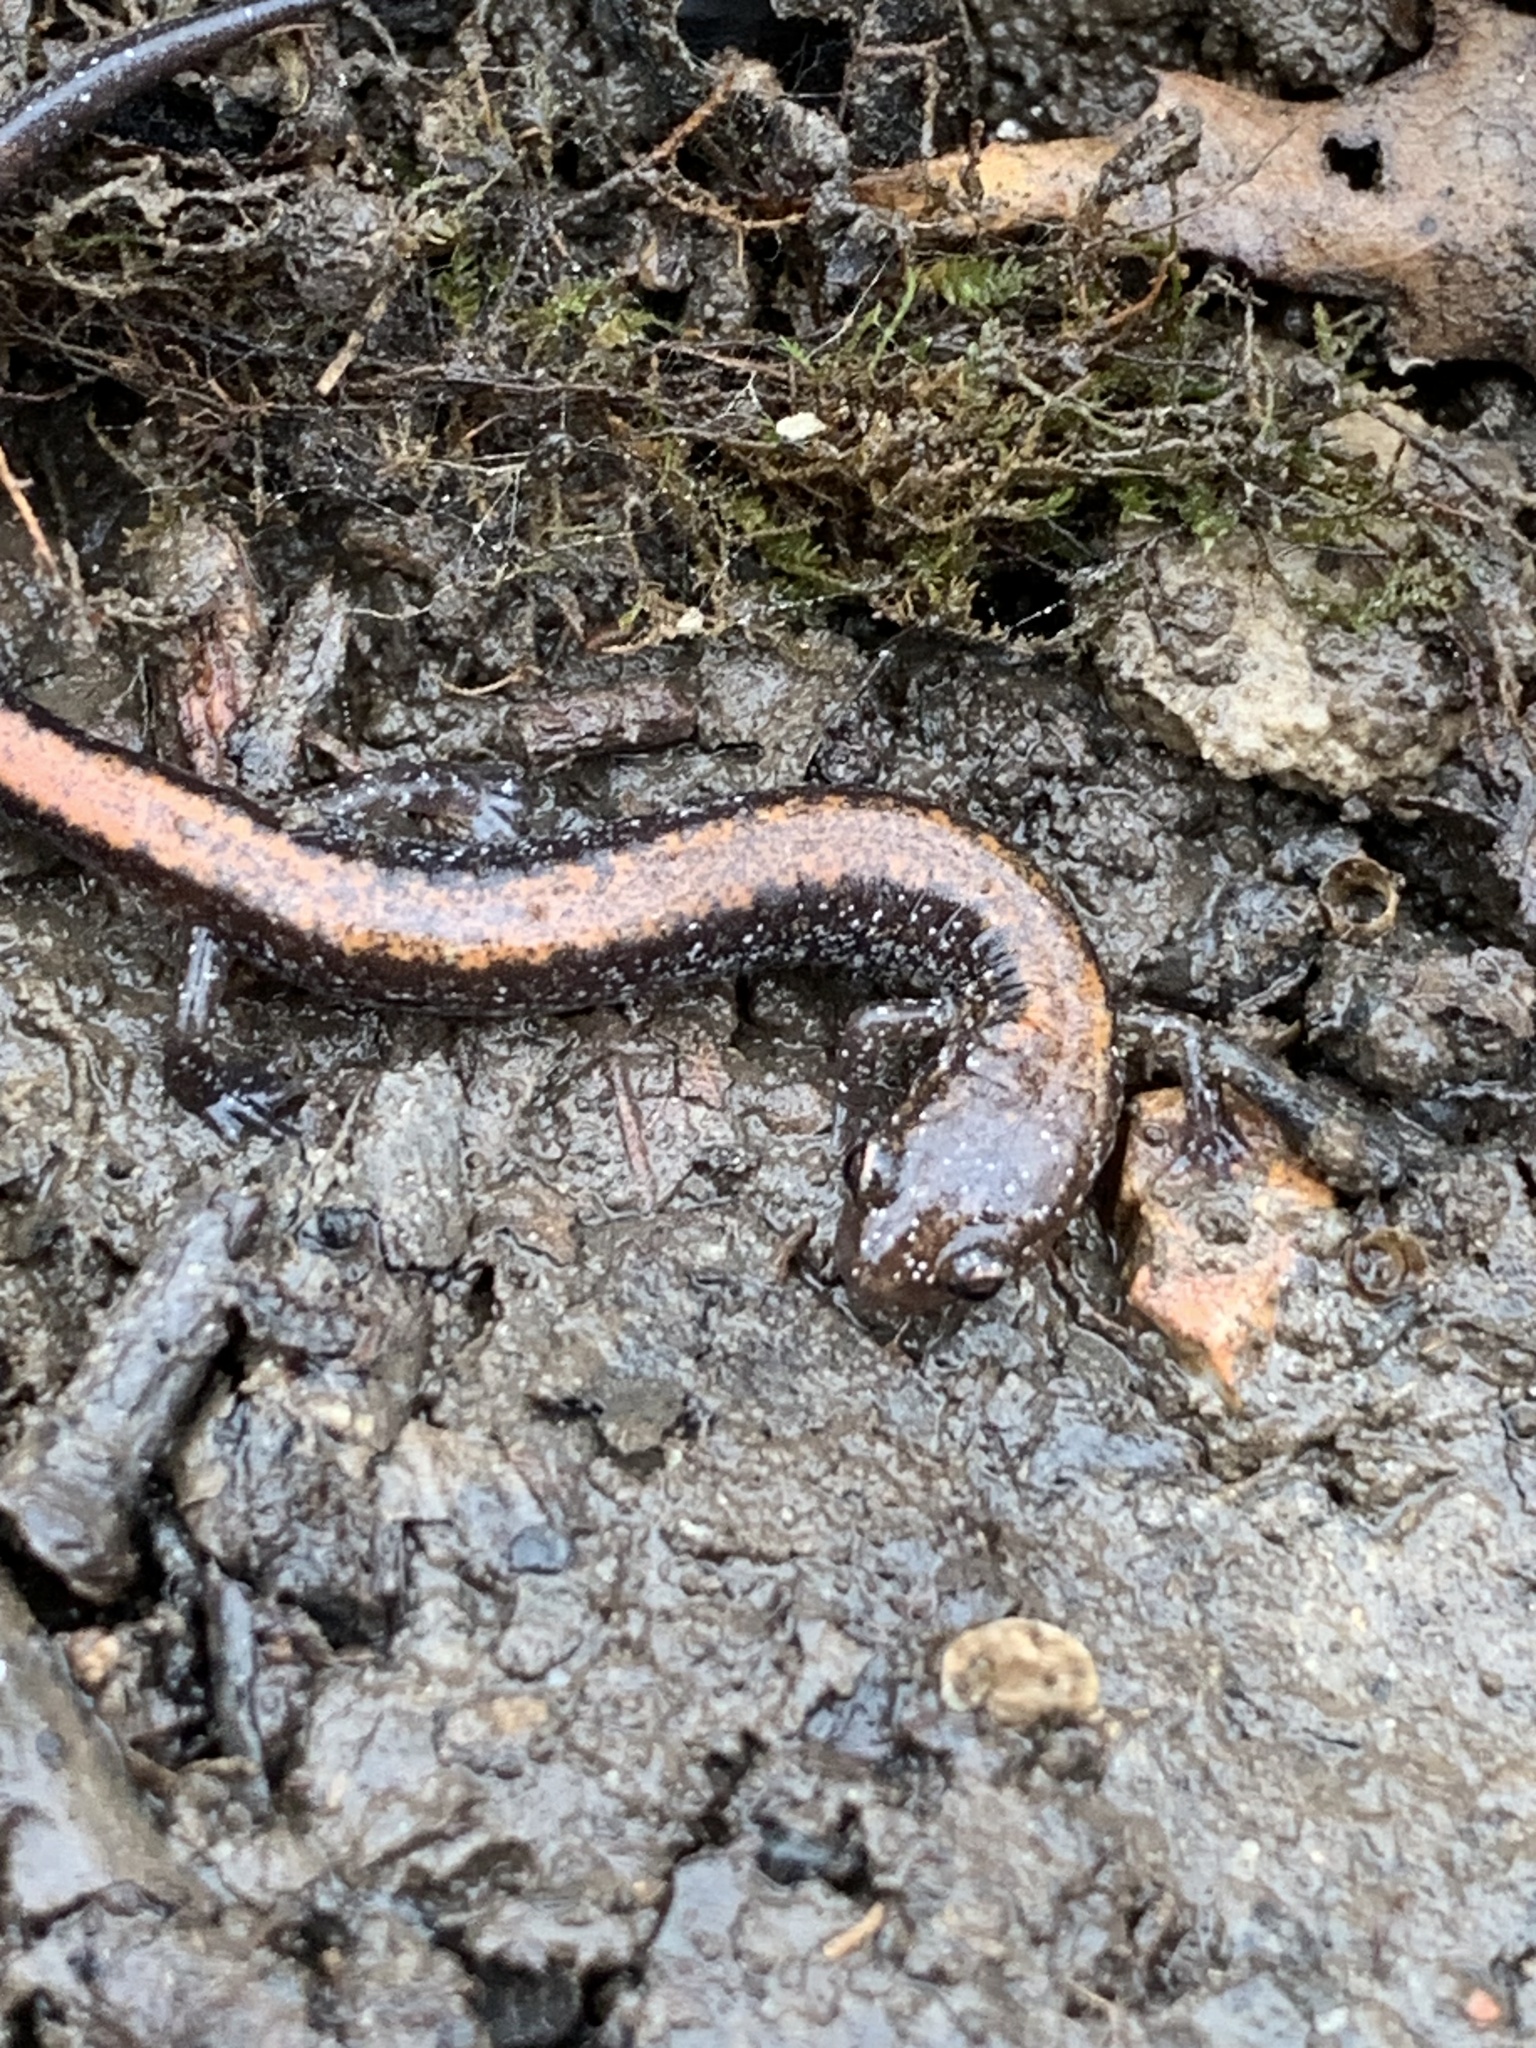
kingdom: Animalia
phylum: Chordata
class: Amphibia
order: Caudata
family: Plethodontidae
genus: Plethodon
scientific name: Plethodon cinereus
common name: Redback salamander
